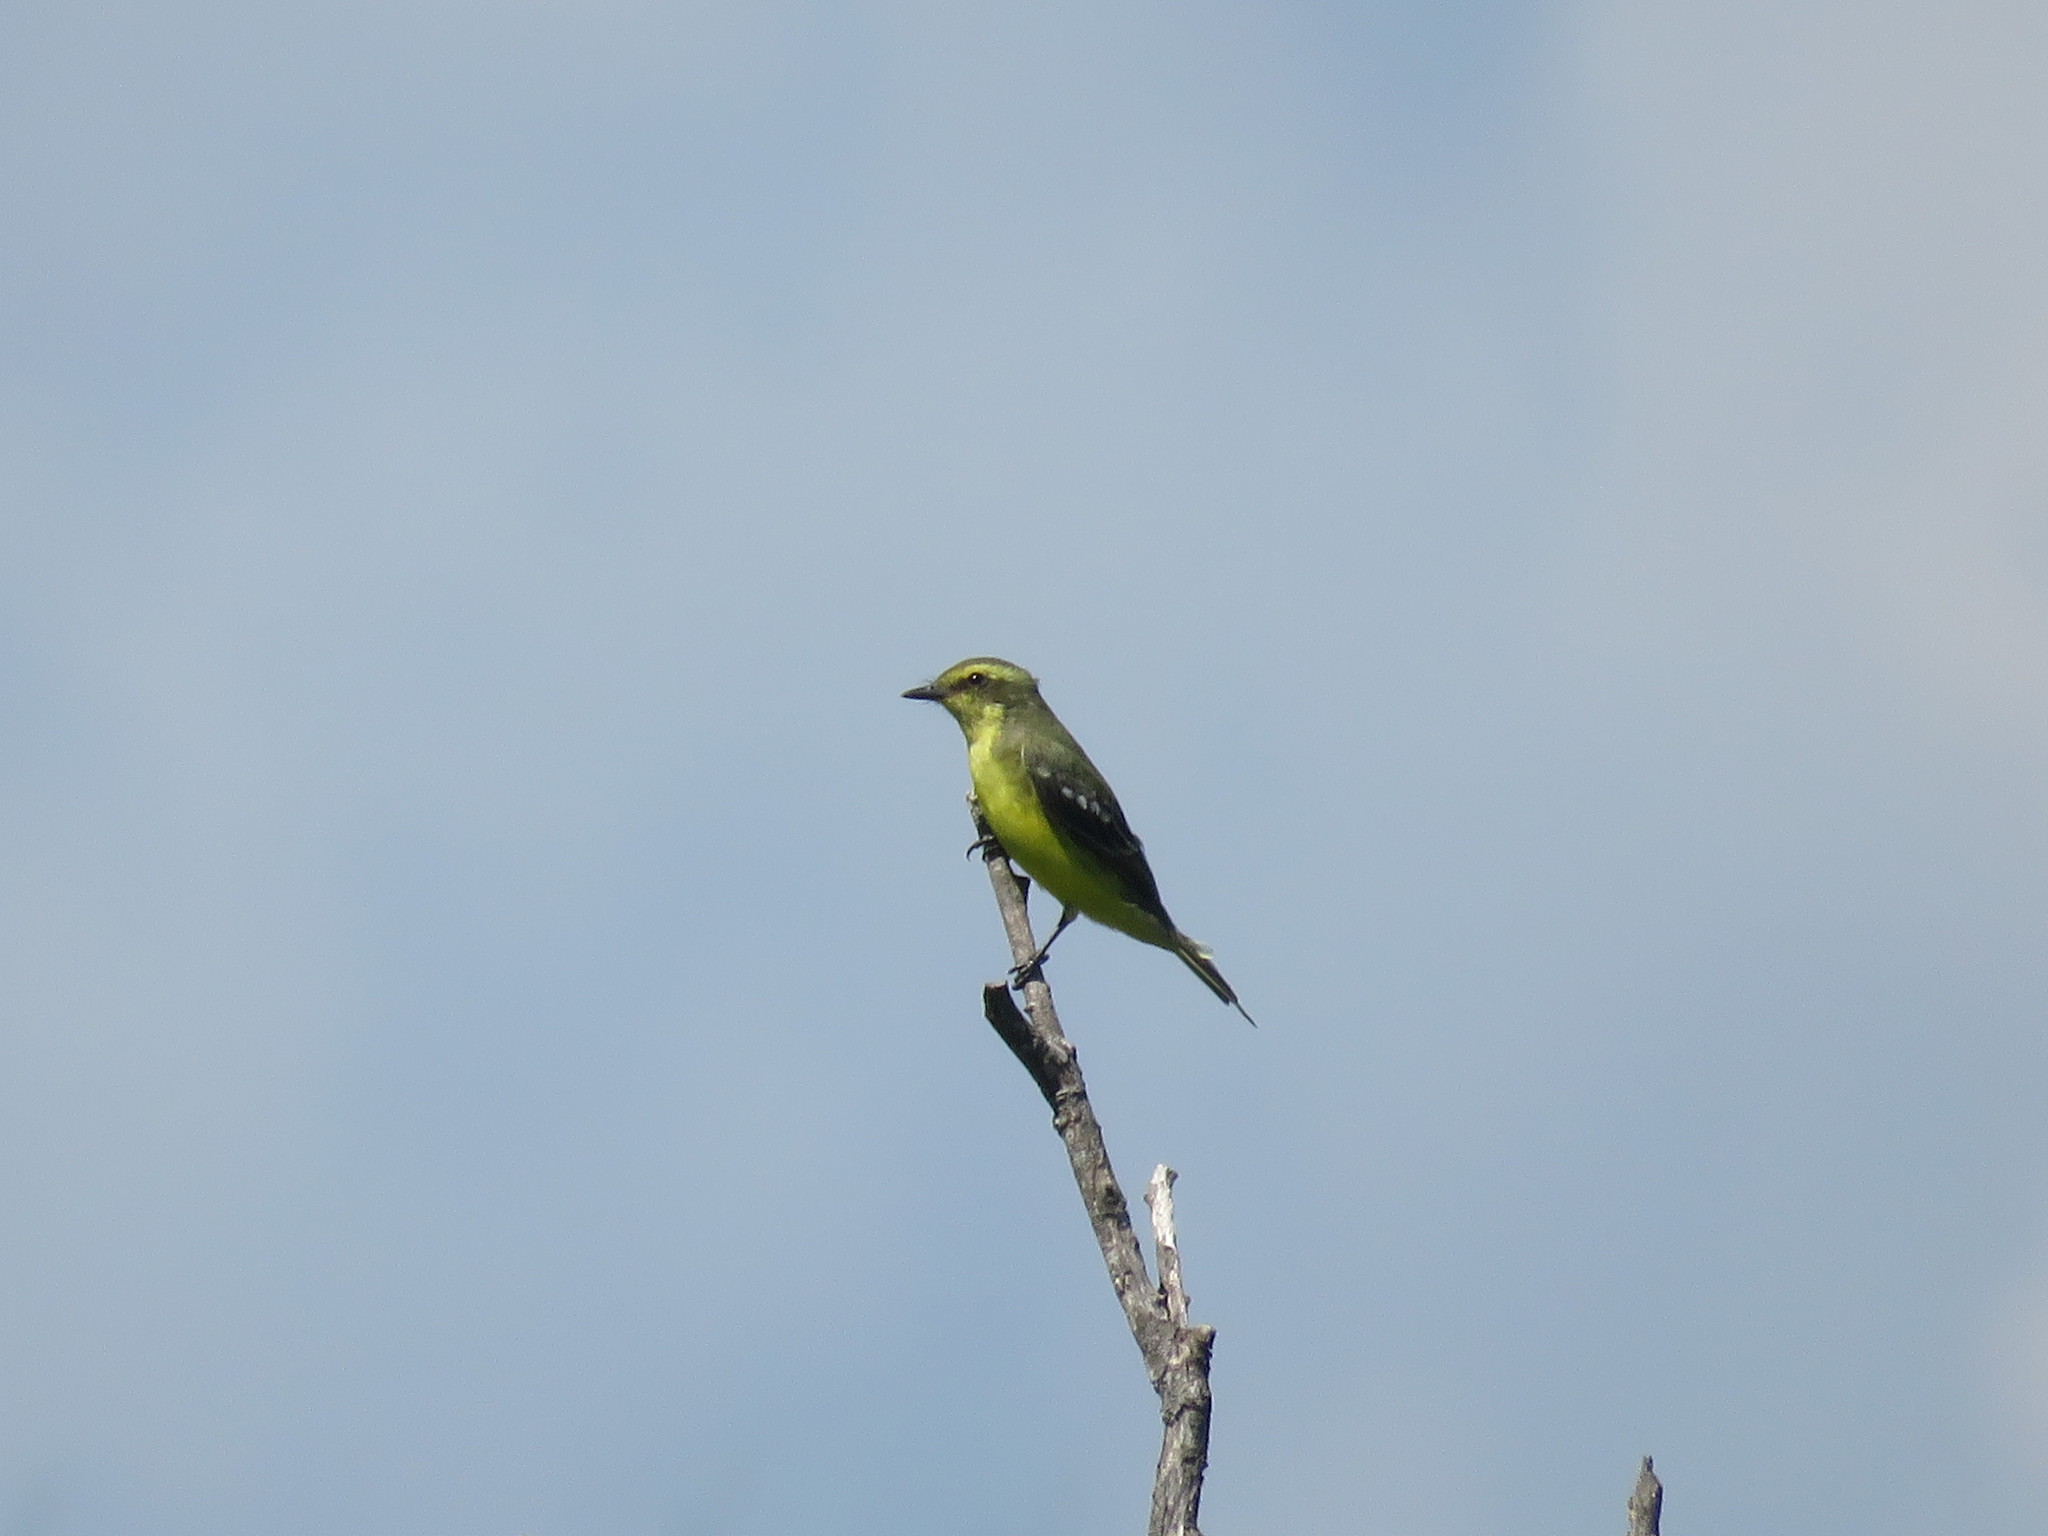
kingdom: Animalia
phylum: Chordata
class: Aves
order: Passeriformes
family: Tyrannidae
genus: Satrapa
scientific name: Satrapa icterophrys
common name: Yellow-browed tyrant
